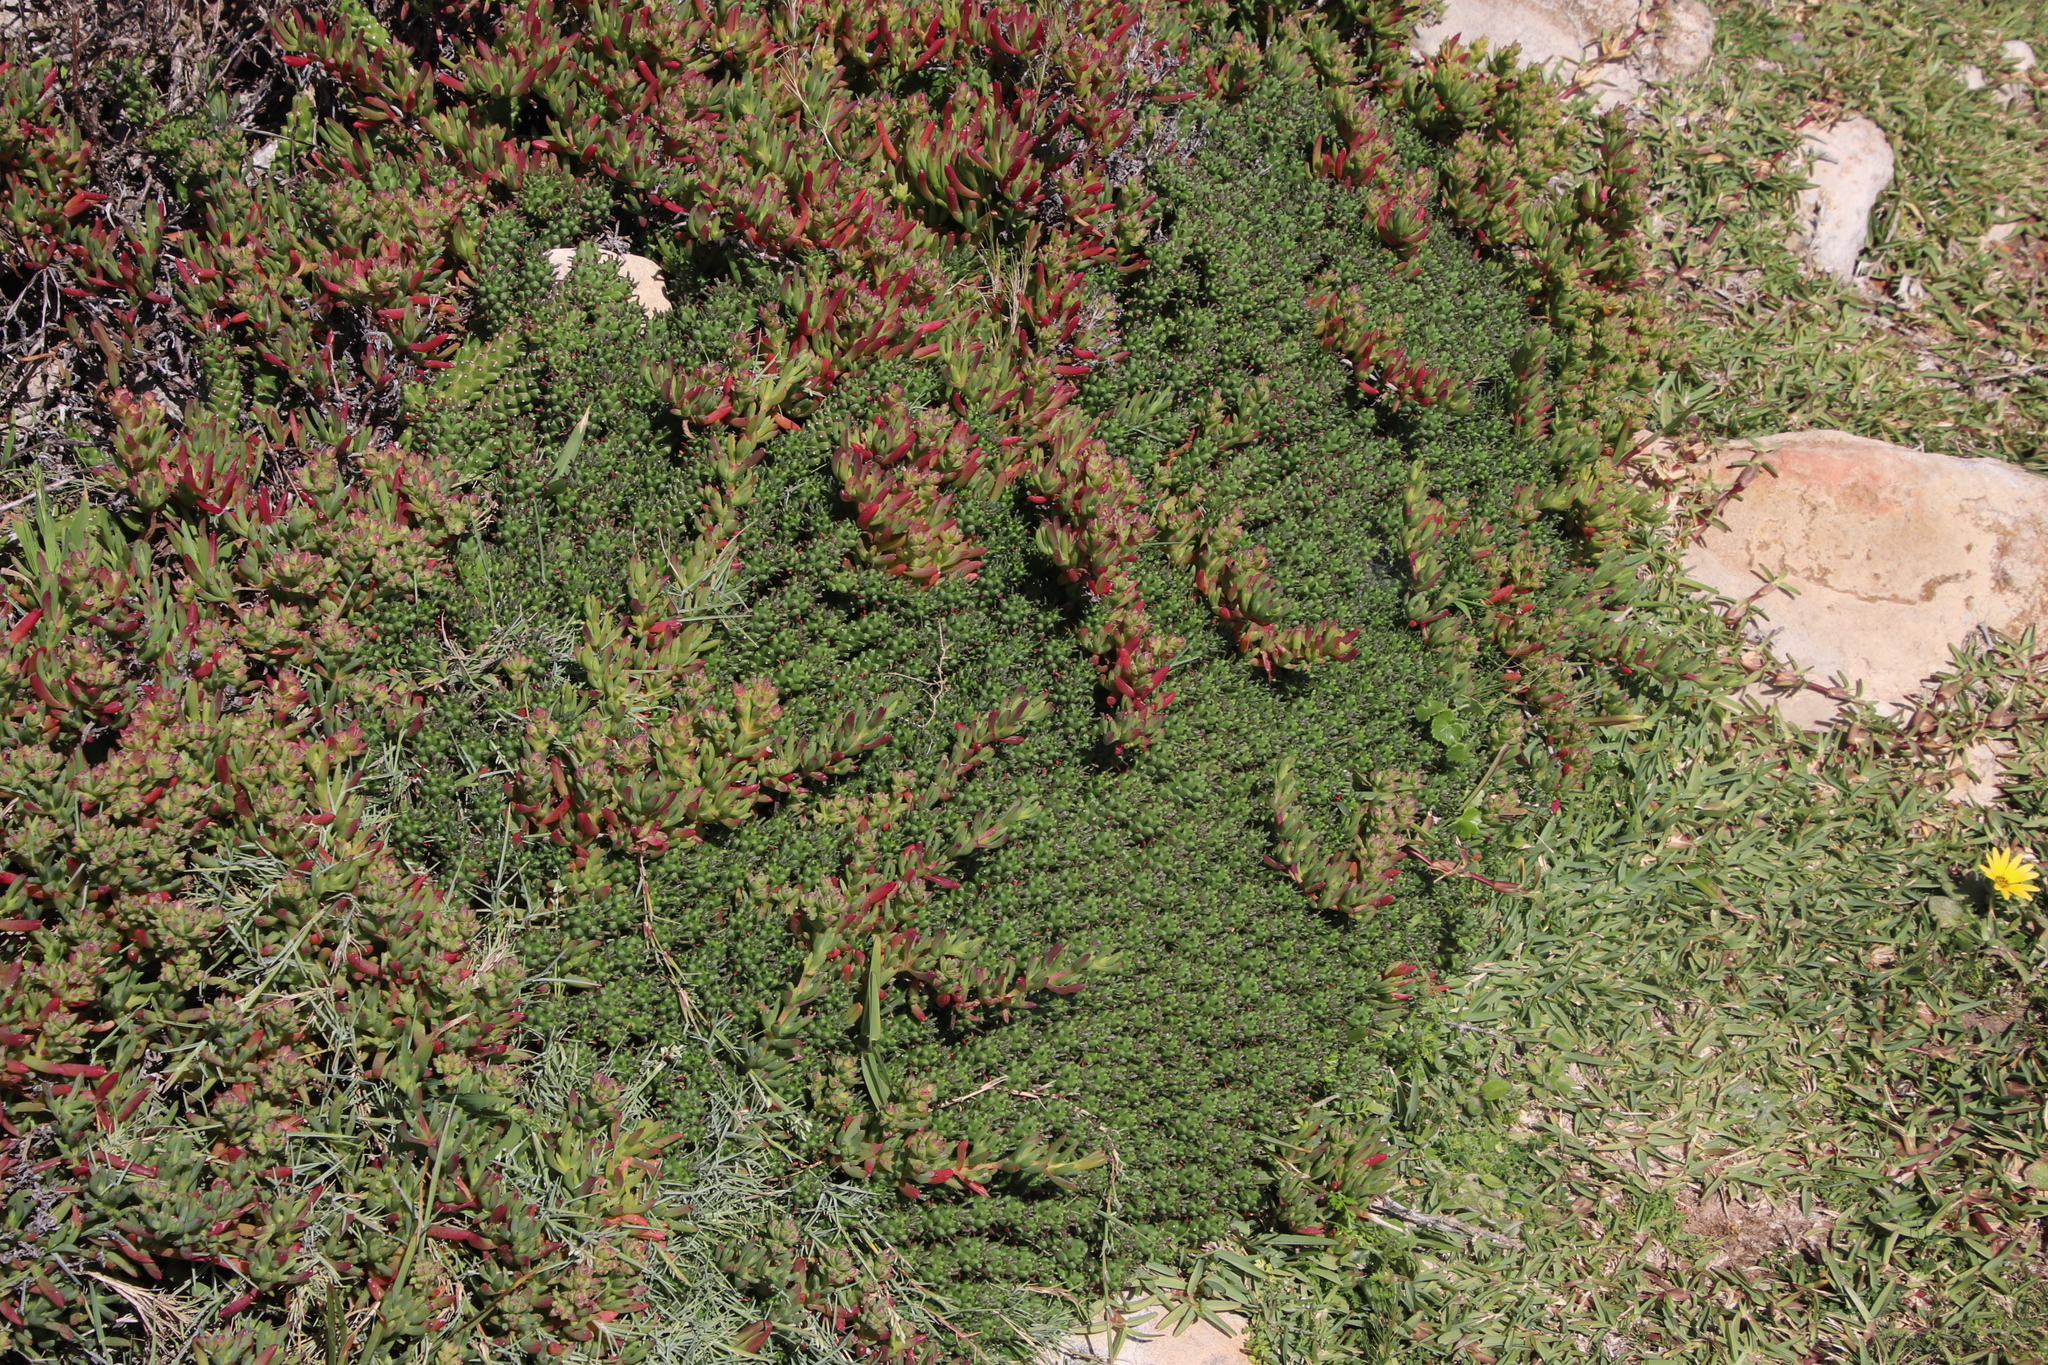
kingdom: Plantae
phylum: Tracheophyta
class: Magnoliopsida
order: Malpighiales
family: Euphorbiaceae
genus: Euphorbia
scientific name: Euphorbia caput-medusae
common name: Medusa's-head
